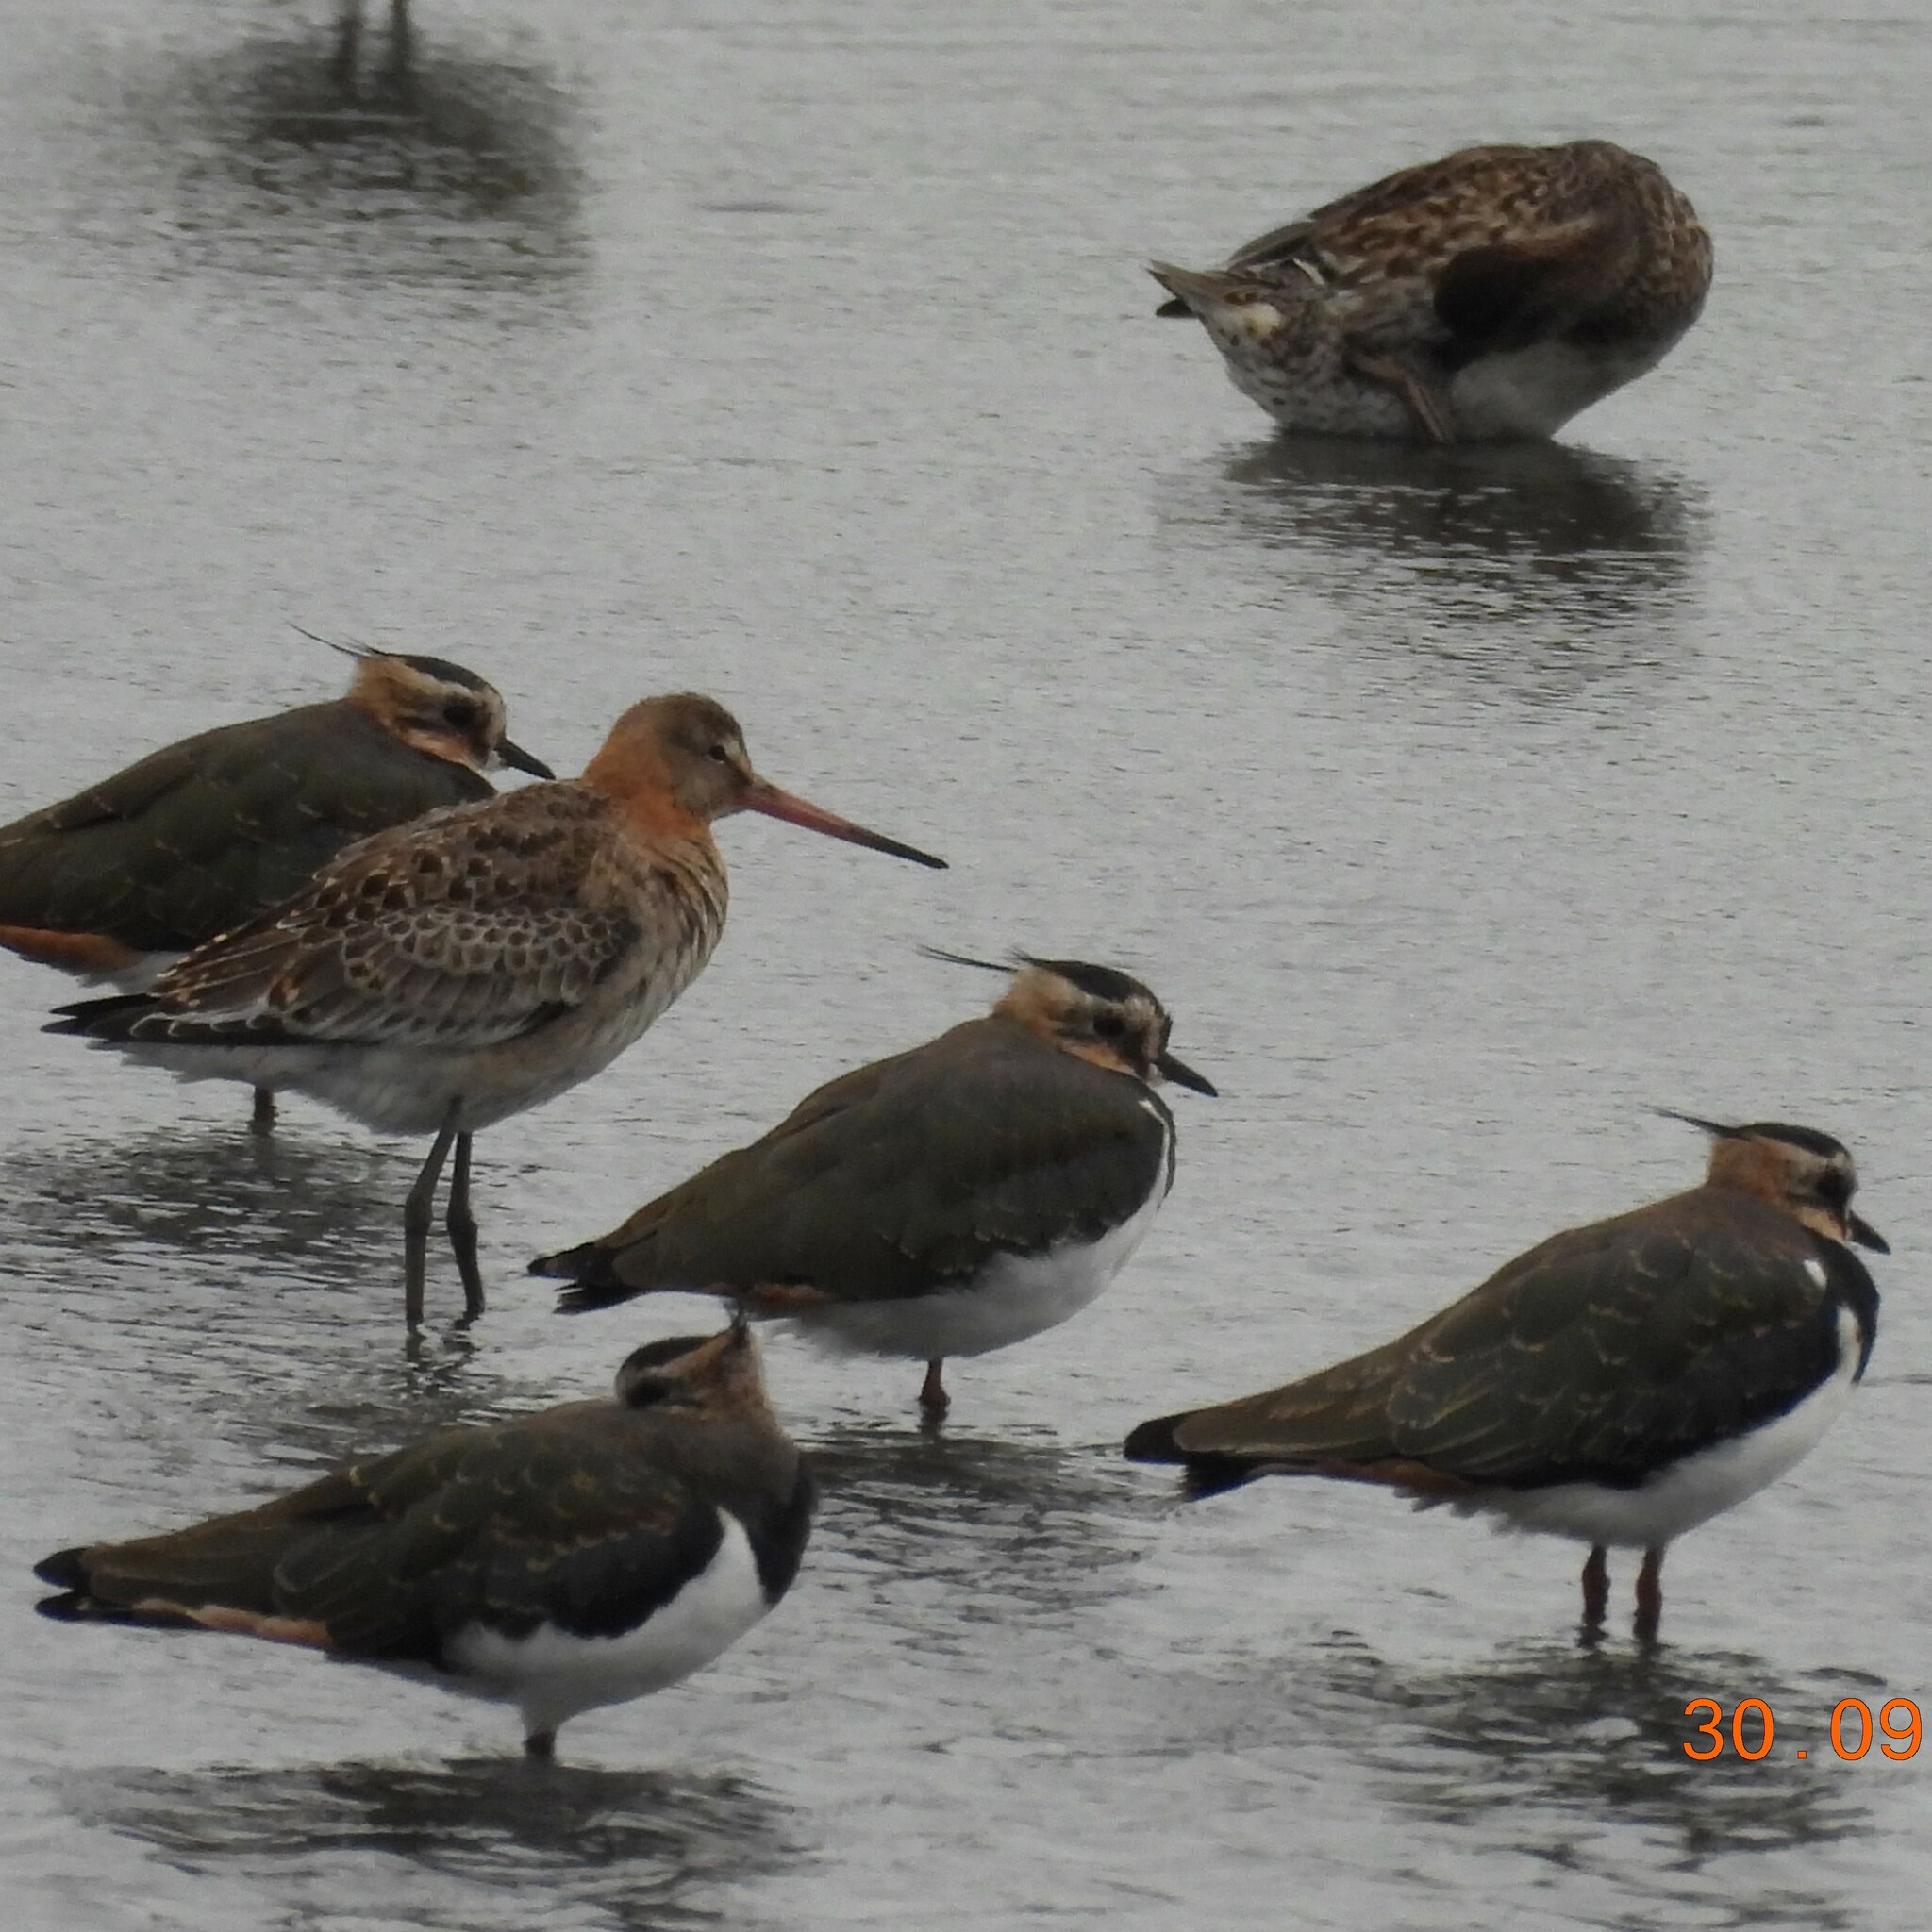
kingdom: Animalia
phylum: Chordata
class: Aves
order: Charadriiformes
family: Scolopacidae
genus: Limosa
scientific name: Limosa limosa
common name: Black-tailed godwit
